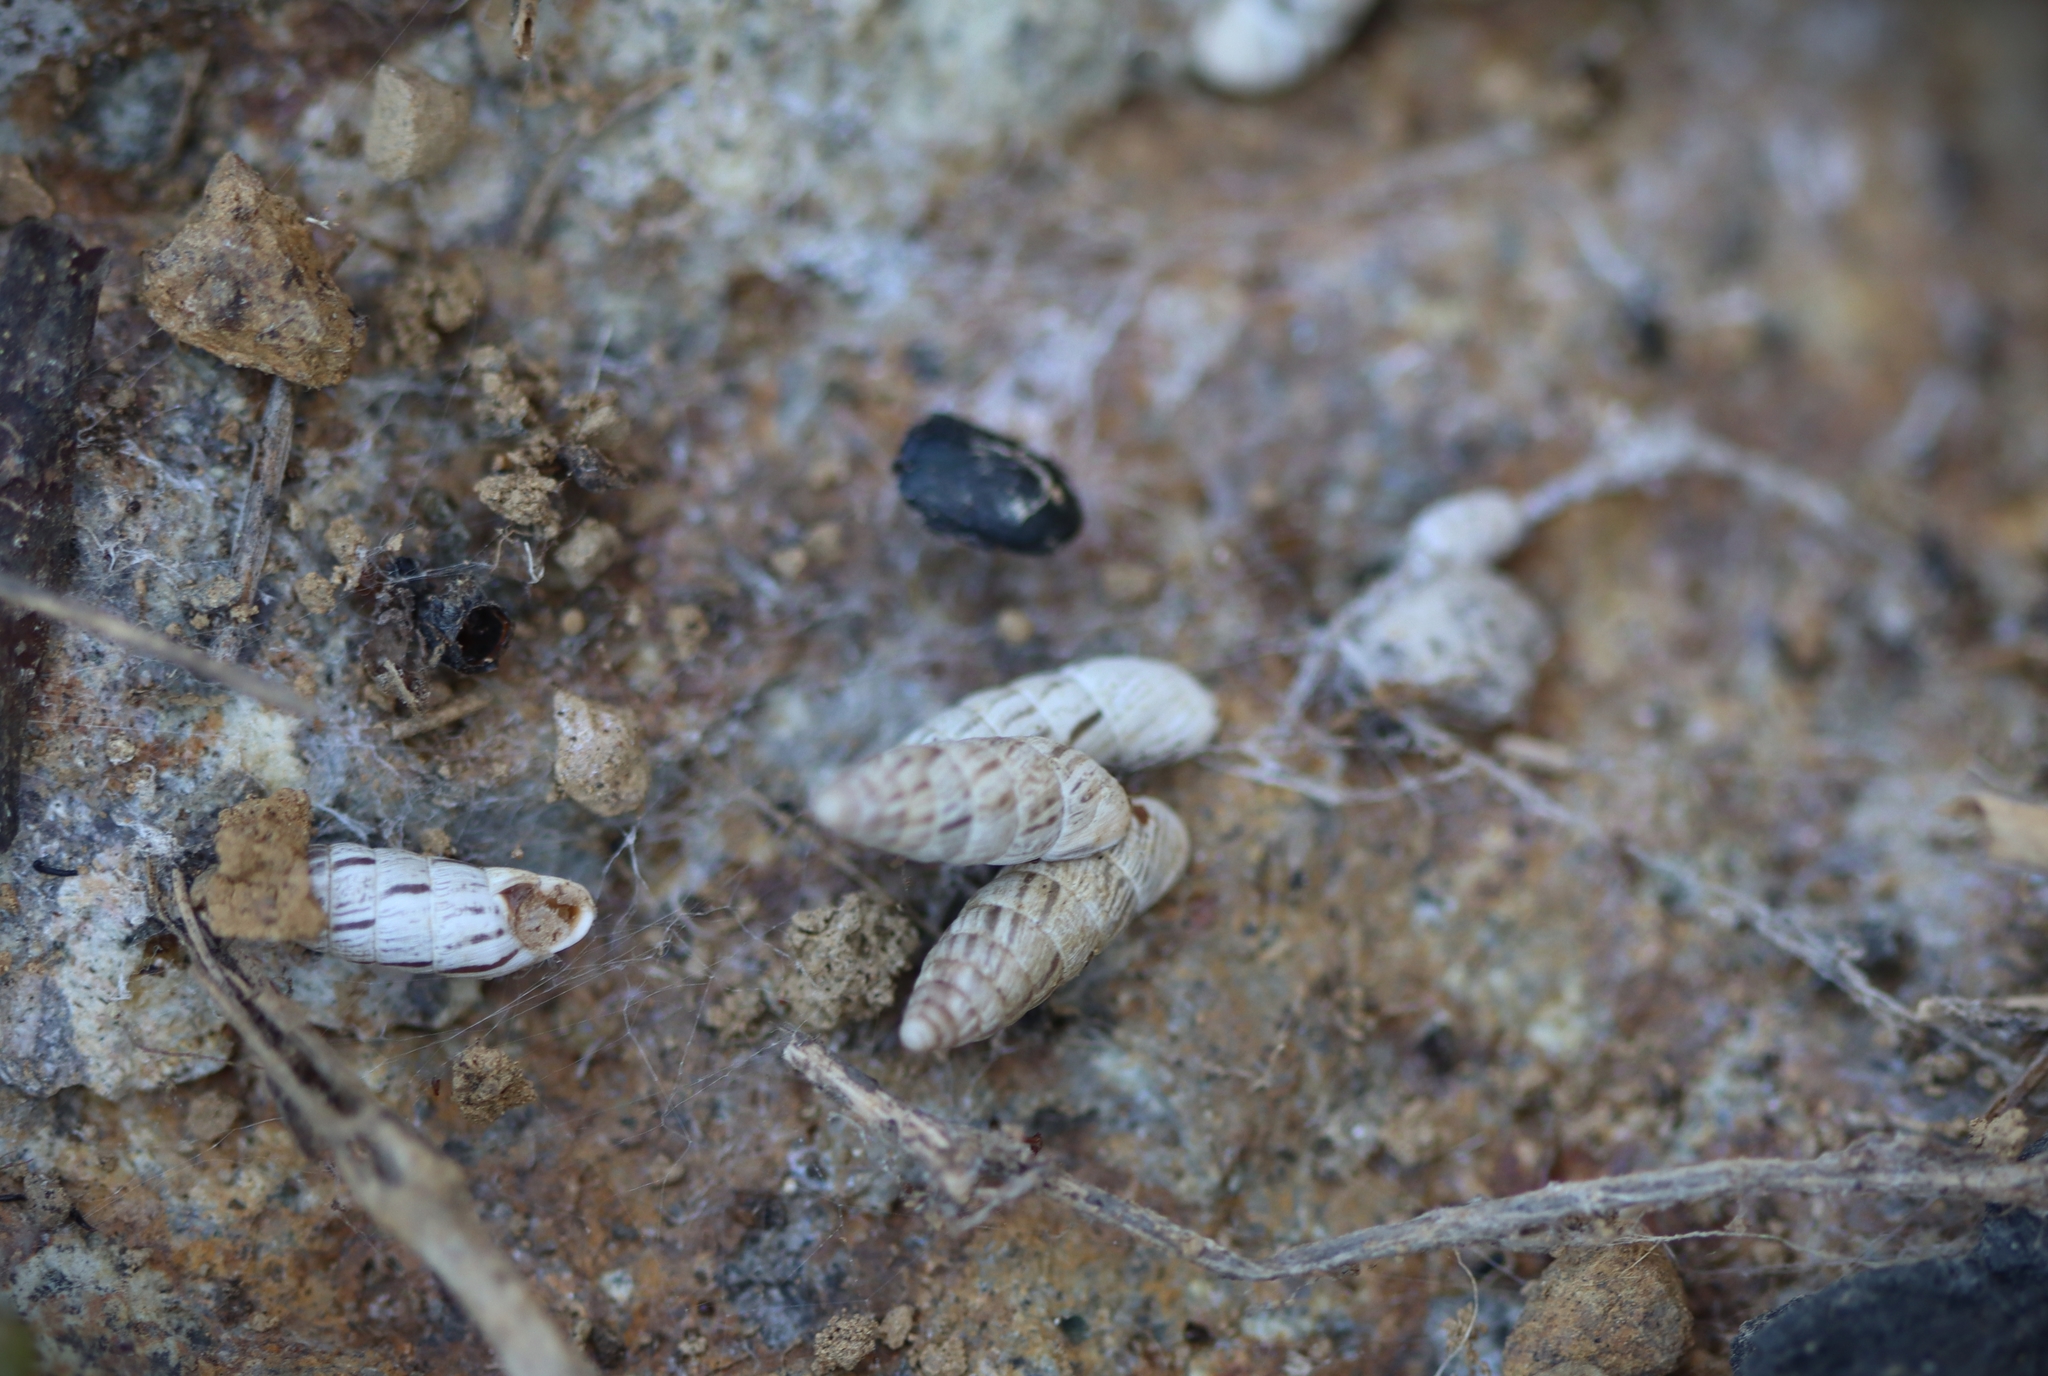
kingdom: Animalia
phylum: Mollusca
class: Gastropoda
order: Stylommatophora
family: Enidae
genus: Chondrus
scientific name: Chondrus zebrulus
